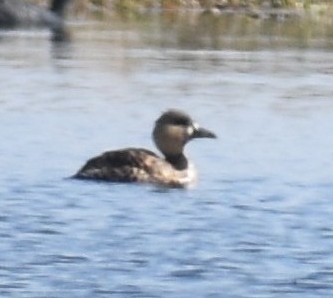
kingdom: Animalia
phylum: Chordata
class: Aves
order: Anseriformes
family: Anatidae
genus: Thalassornis
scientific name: Thalassornis leuconotus
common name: White-backed duck
